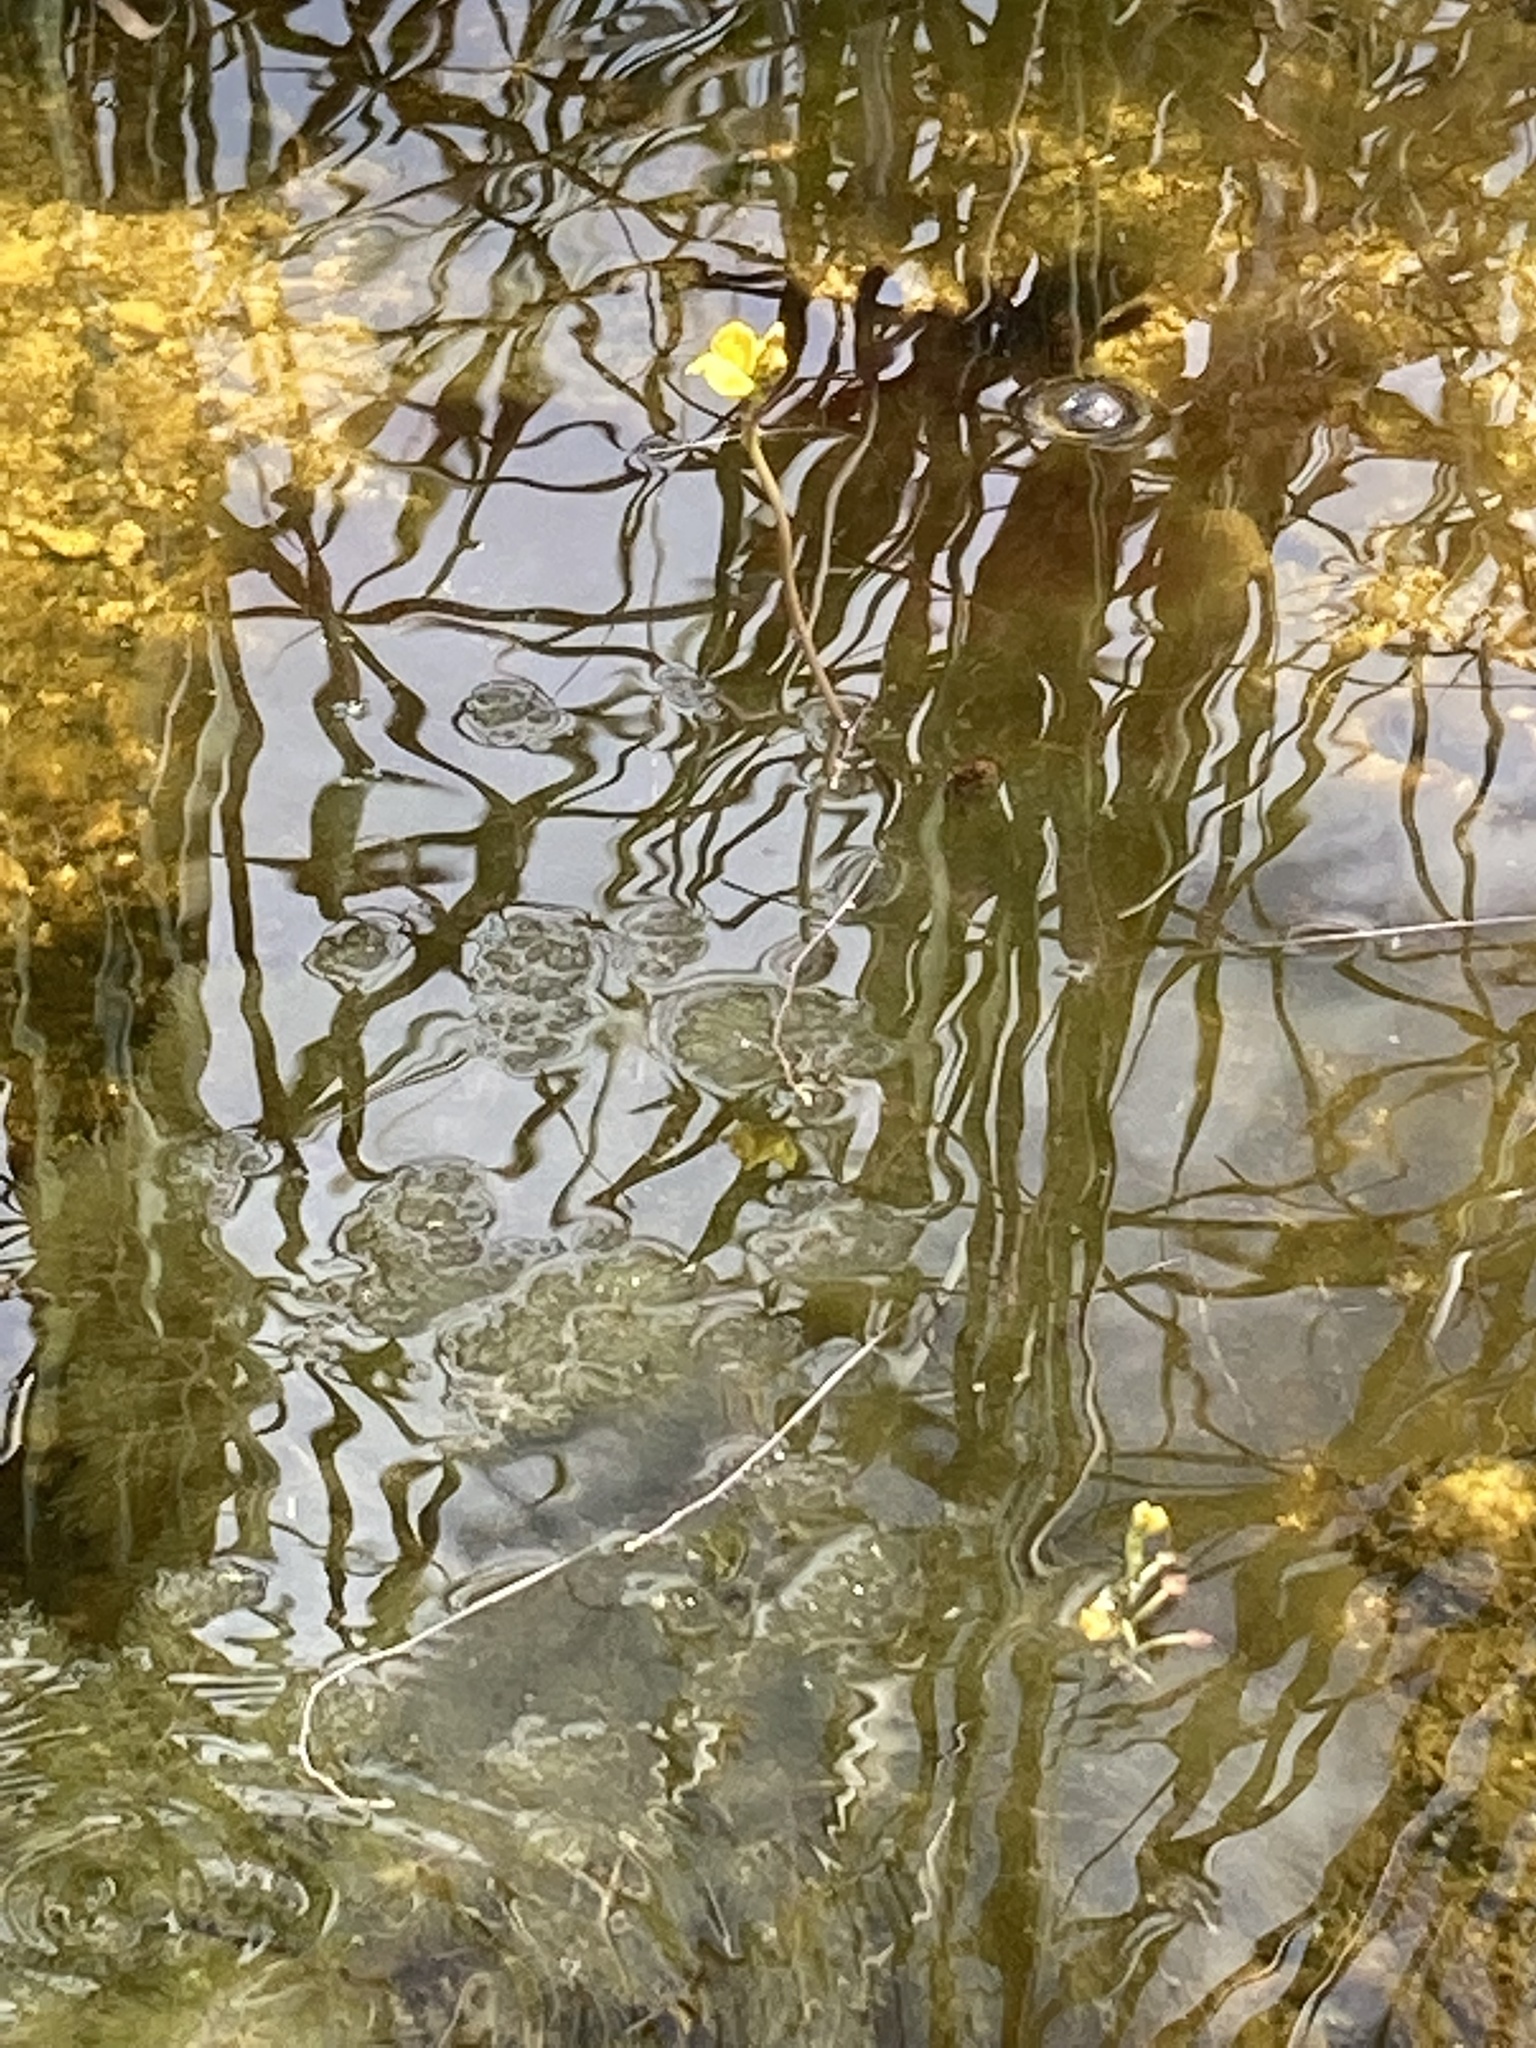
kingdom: Plantae
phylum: Tracheophyta
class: Magnoliopsida
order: Lamiales
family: Lentibulariaceae
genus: Utricularia
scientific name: Utricularia foliosa
